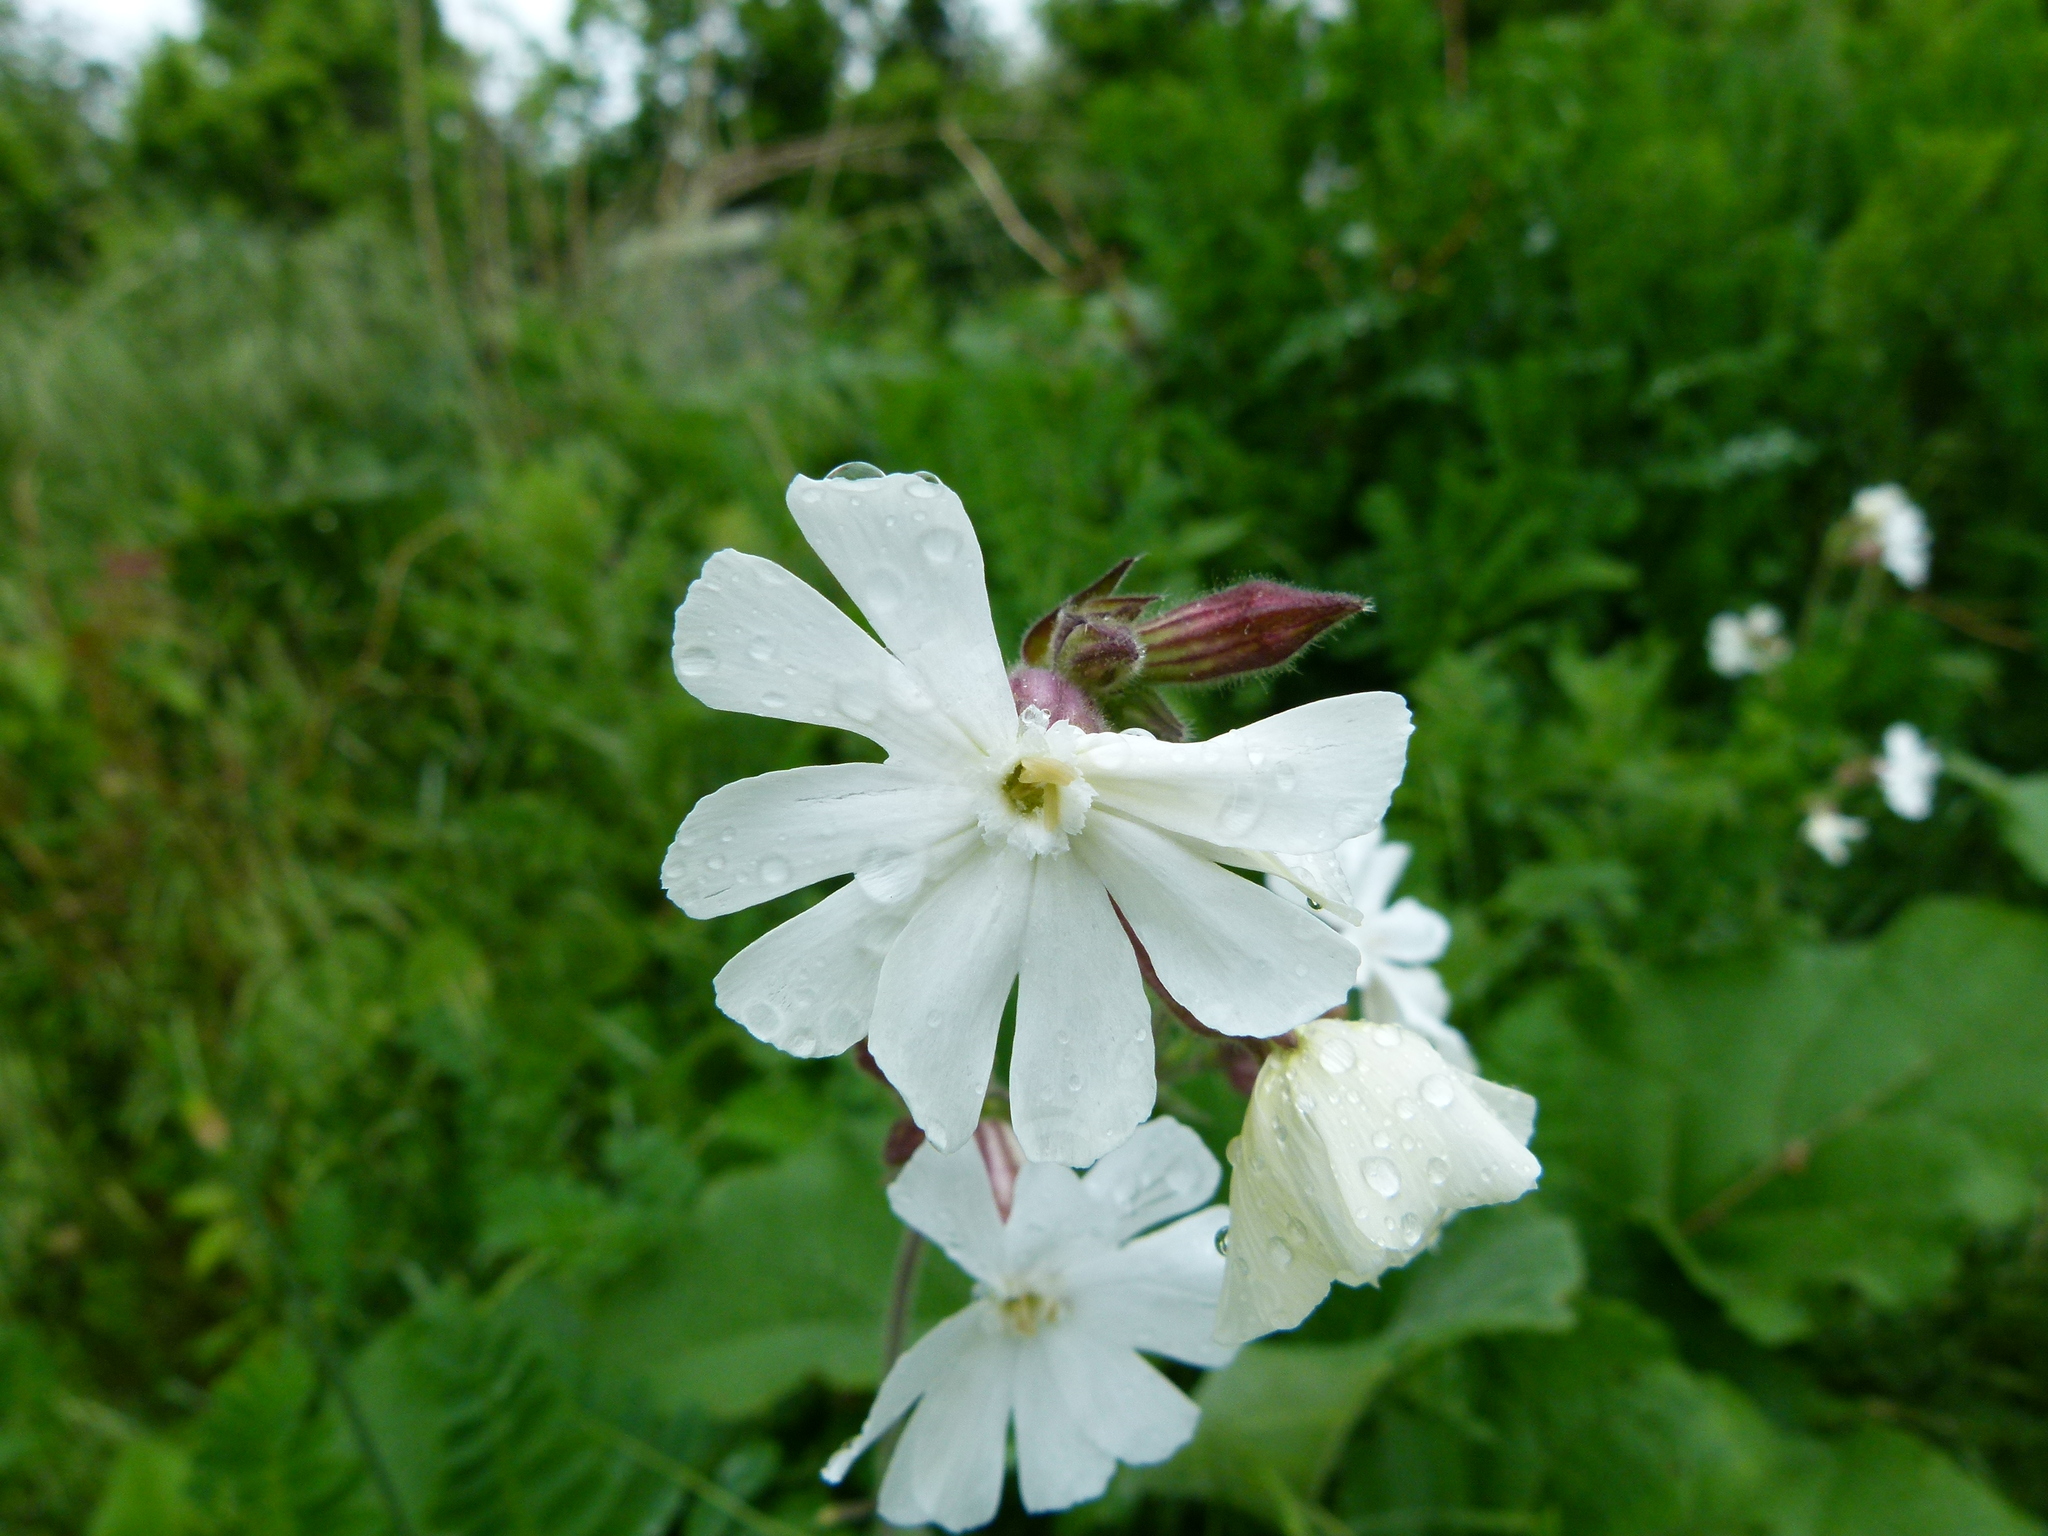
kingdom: Plantae
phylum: Tracheophyta
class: Magnoliopsida
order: Caryophyllales
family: Caryophyllaceae
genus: Silene
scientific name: Silene latifolia
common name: White campion
